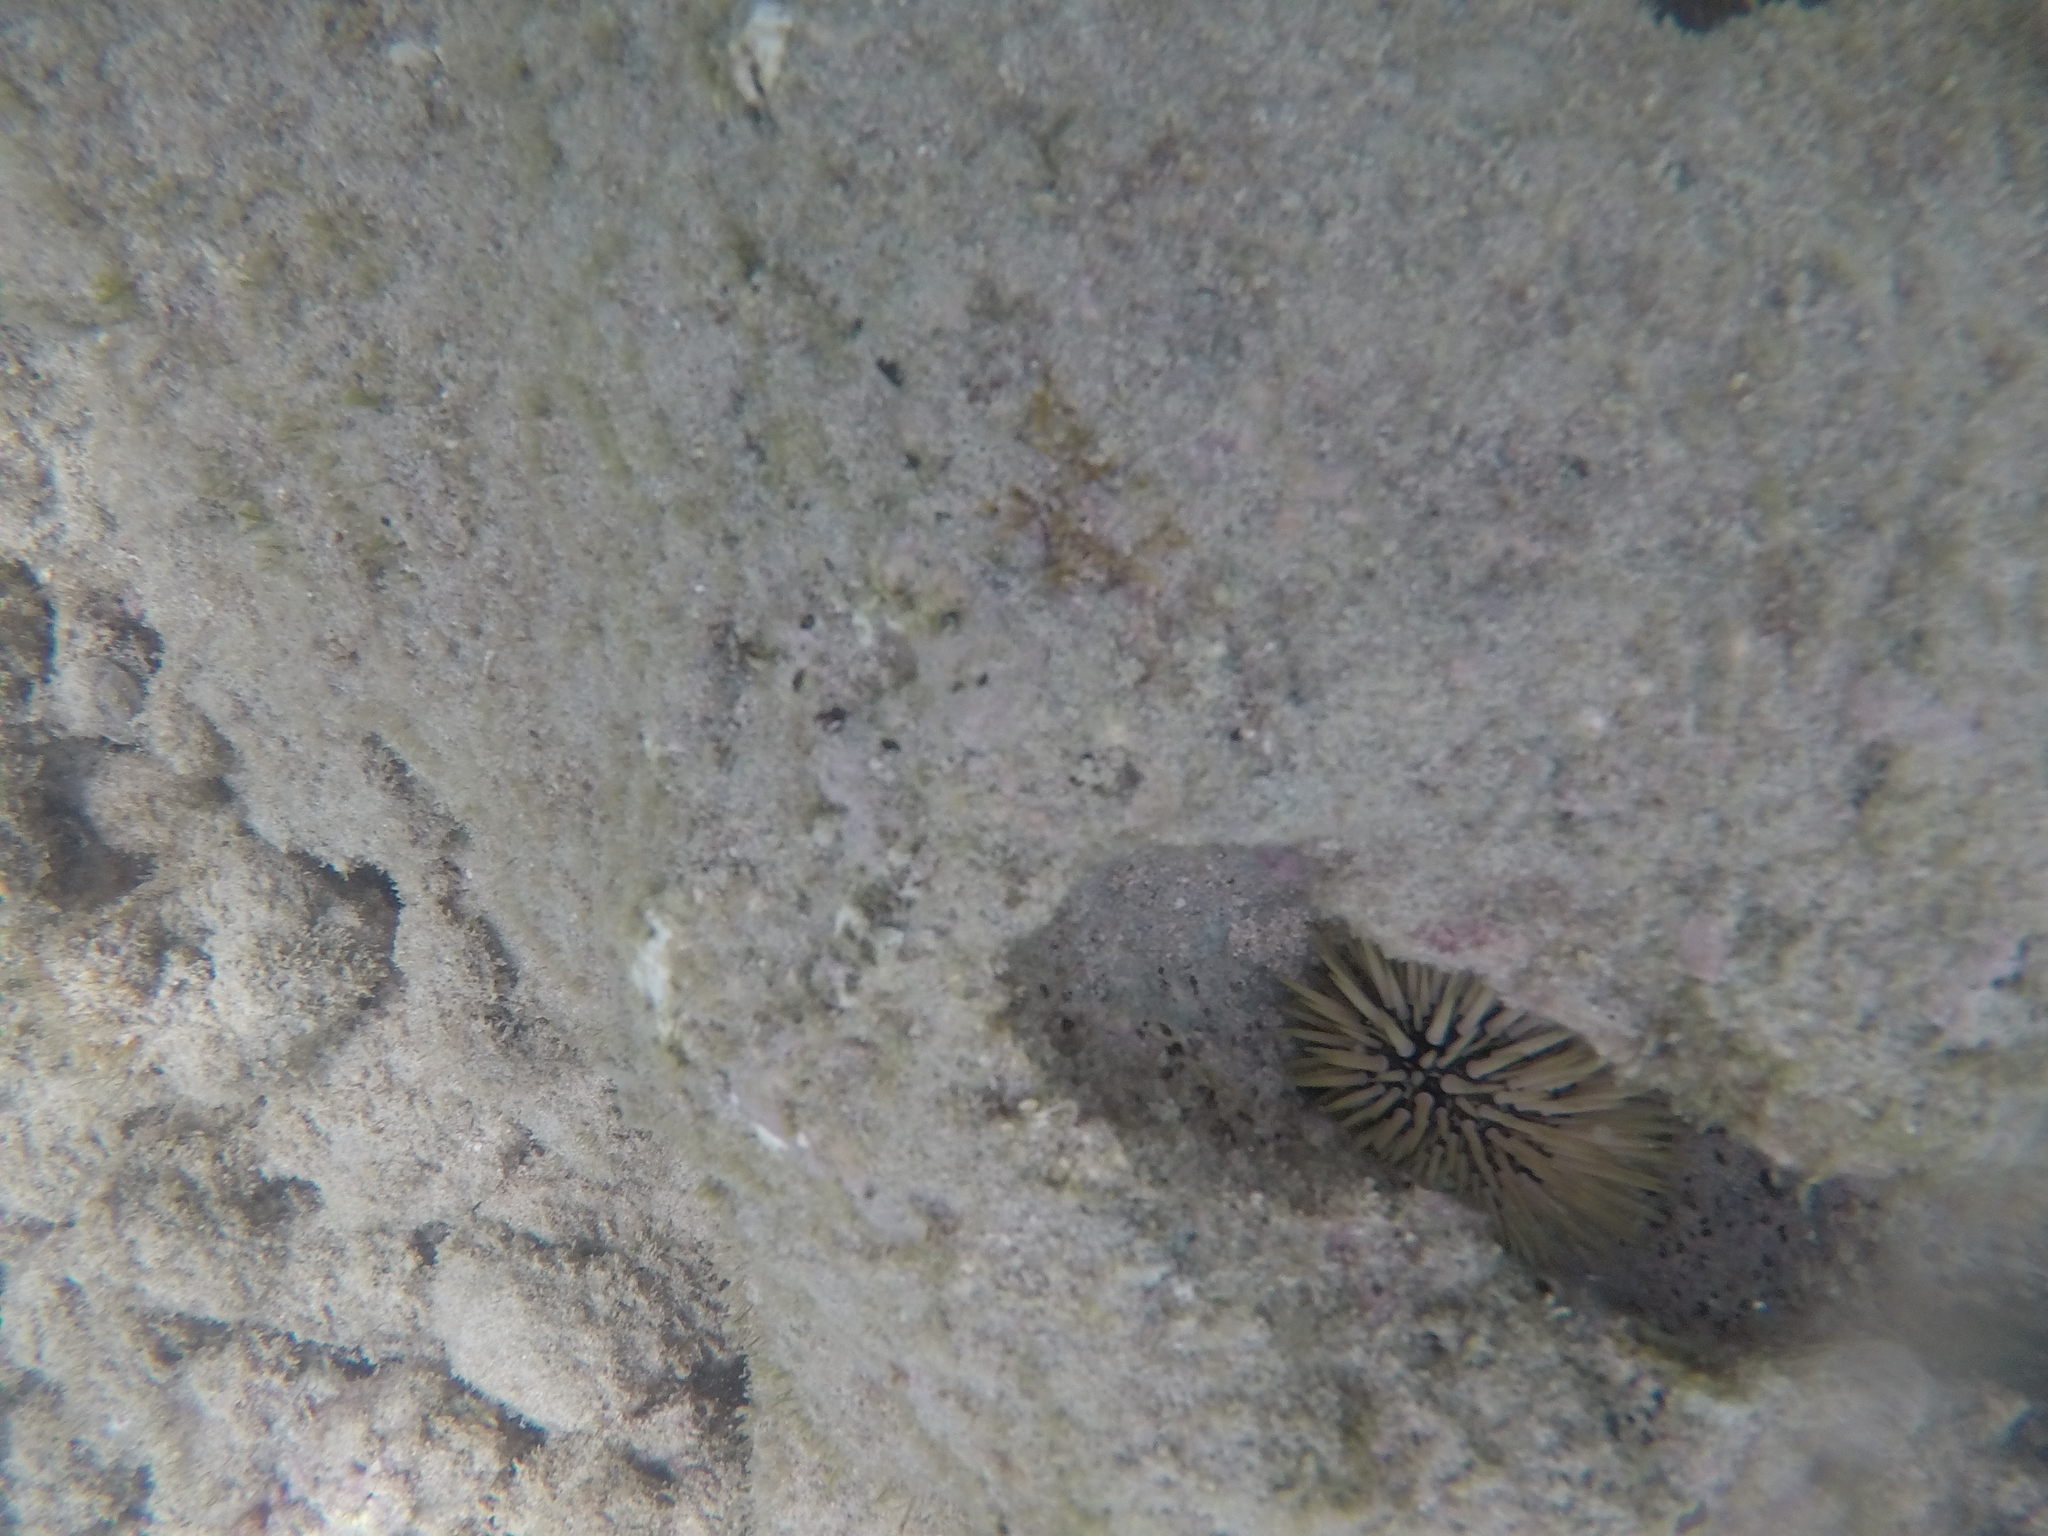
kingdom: Animalia
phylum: Echinodermata
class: Echinoidea
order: Camarodonta
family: Echinometridae
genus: Echinometra
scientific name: Echinometra mathaei
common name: Rock-boring urchin
